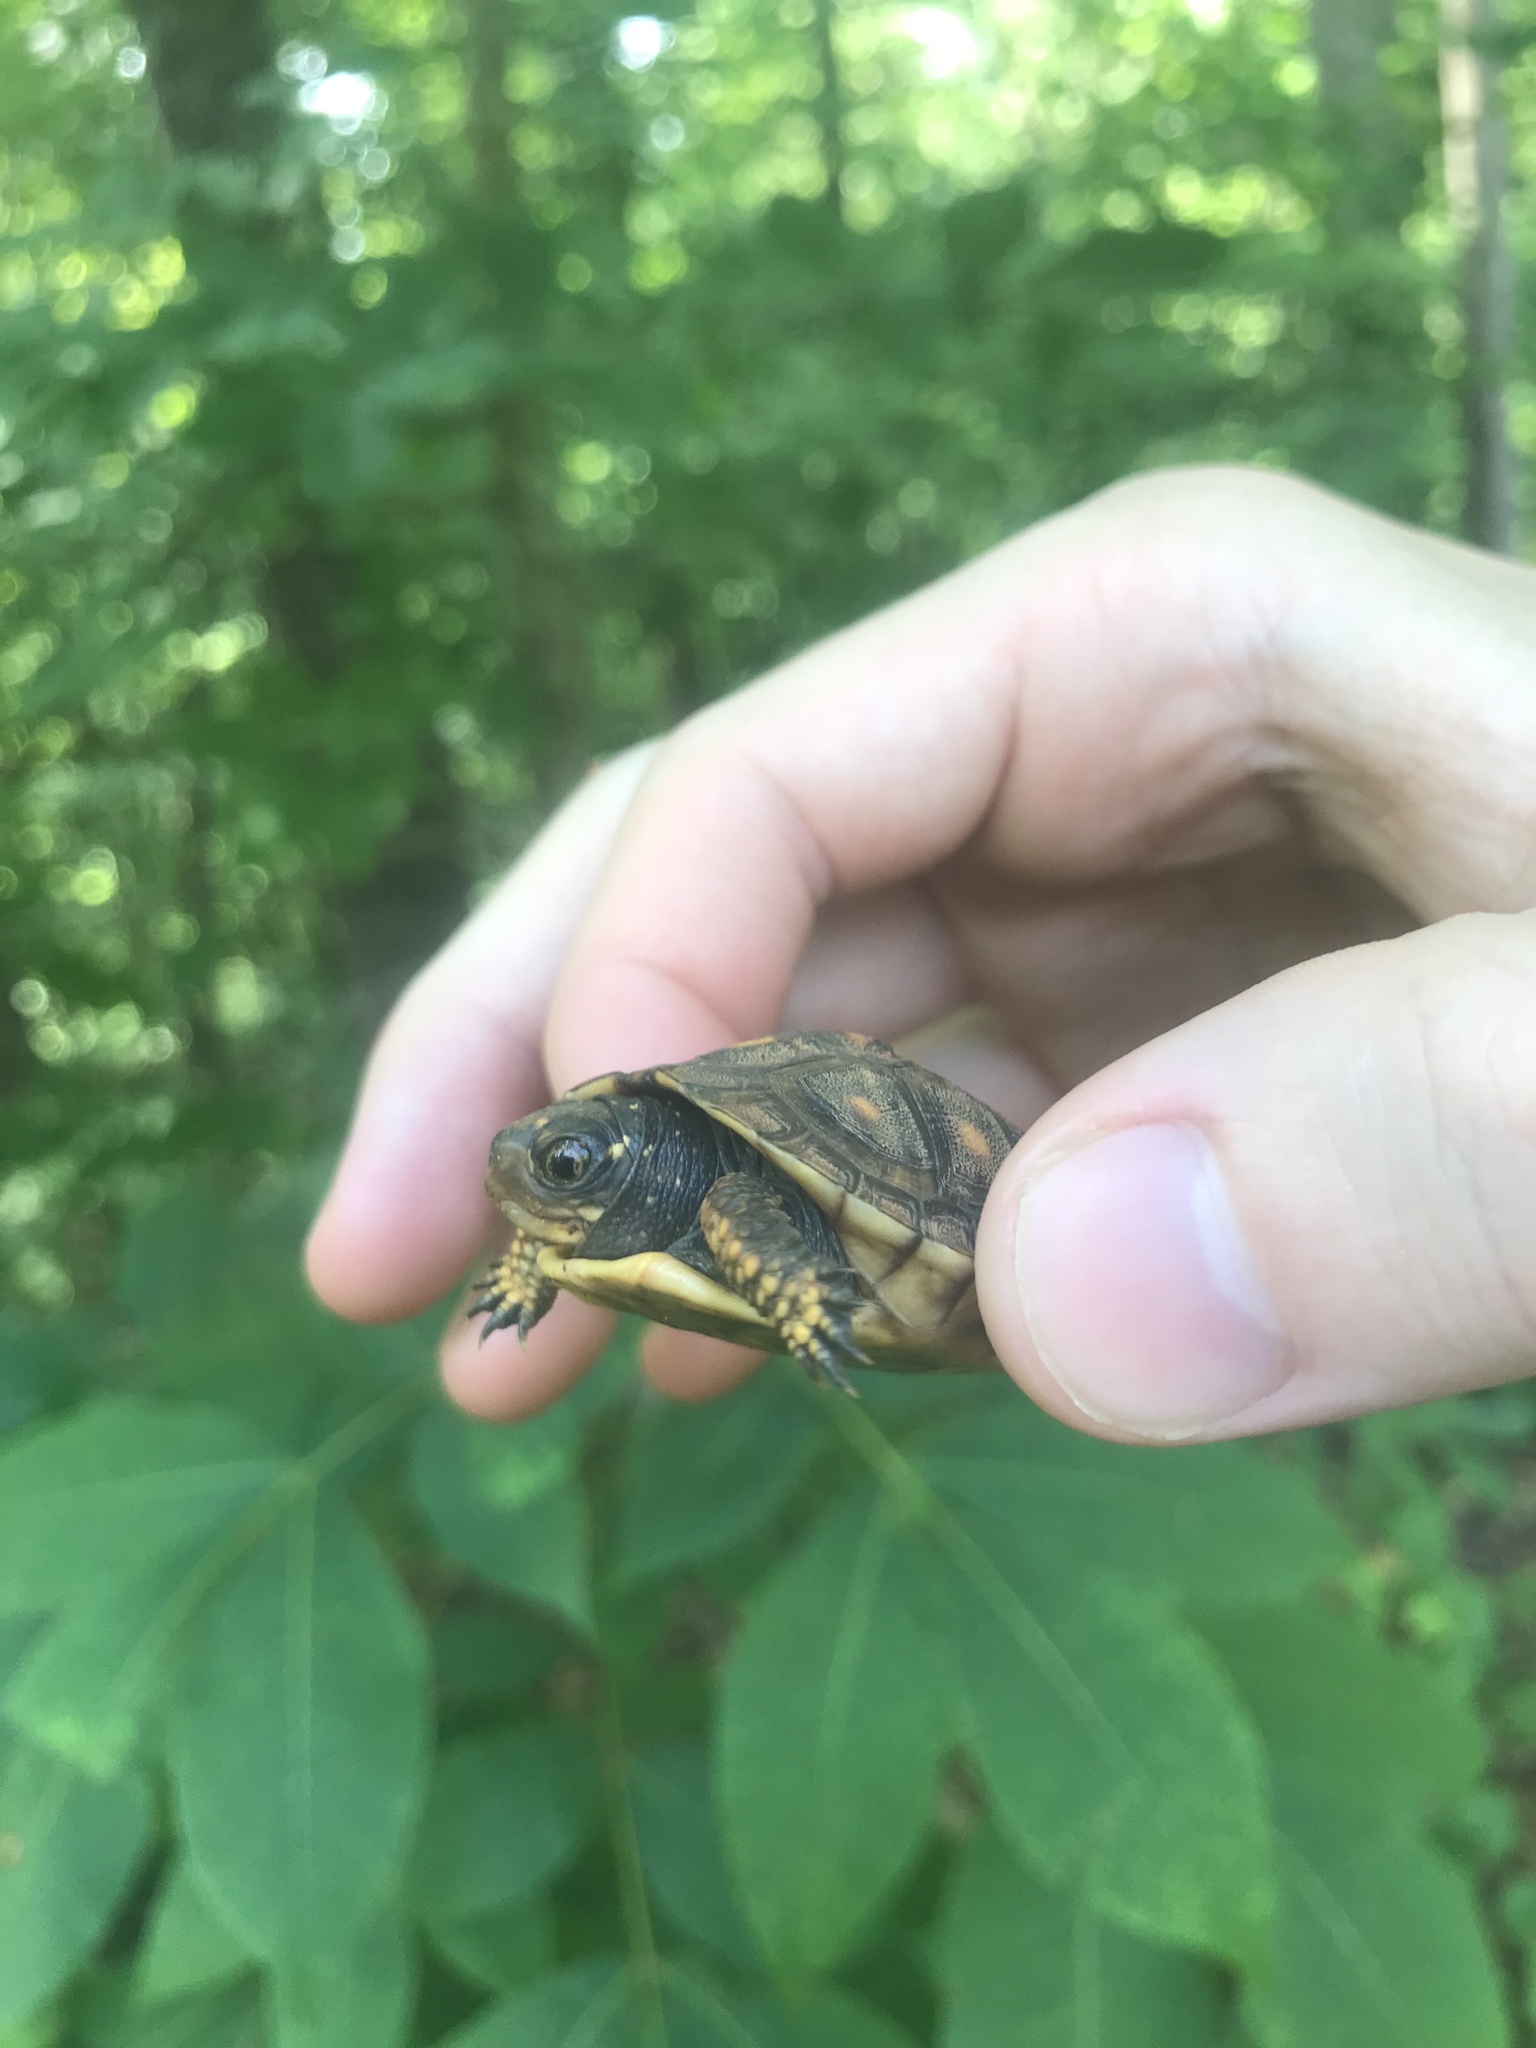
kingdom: Animalia
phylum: Chordata
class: Testudines
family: Emydidae
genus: Terrapene
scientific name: Terrapene carolina
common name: Common box turtle
